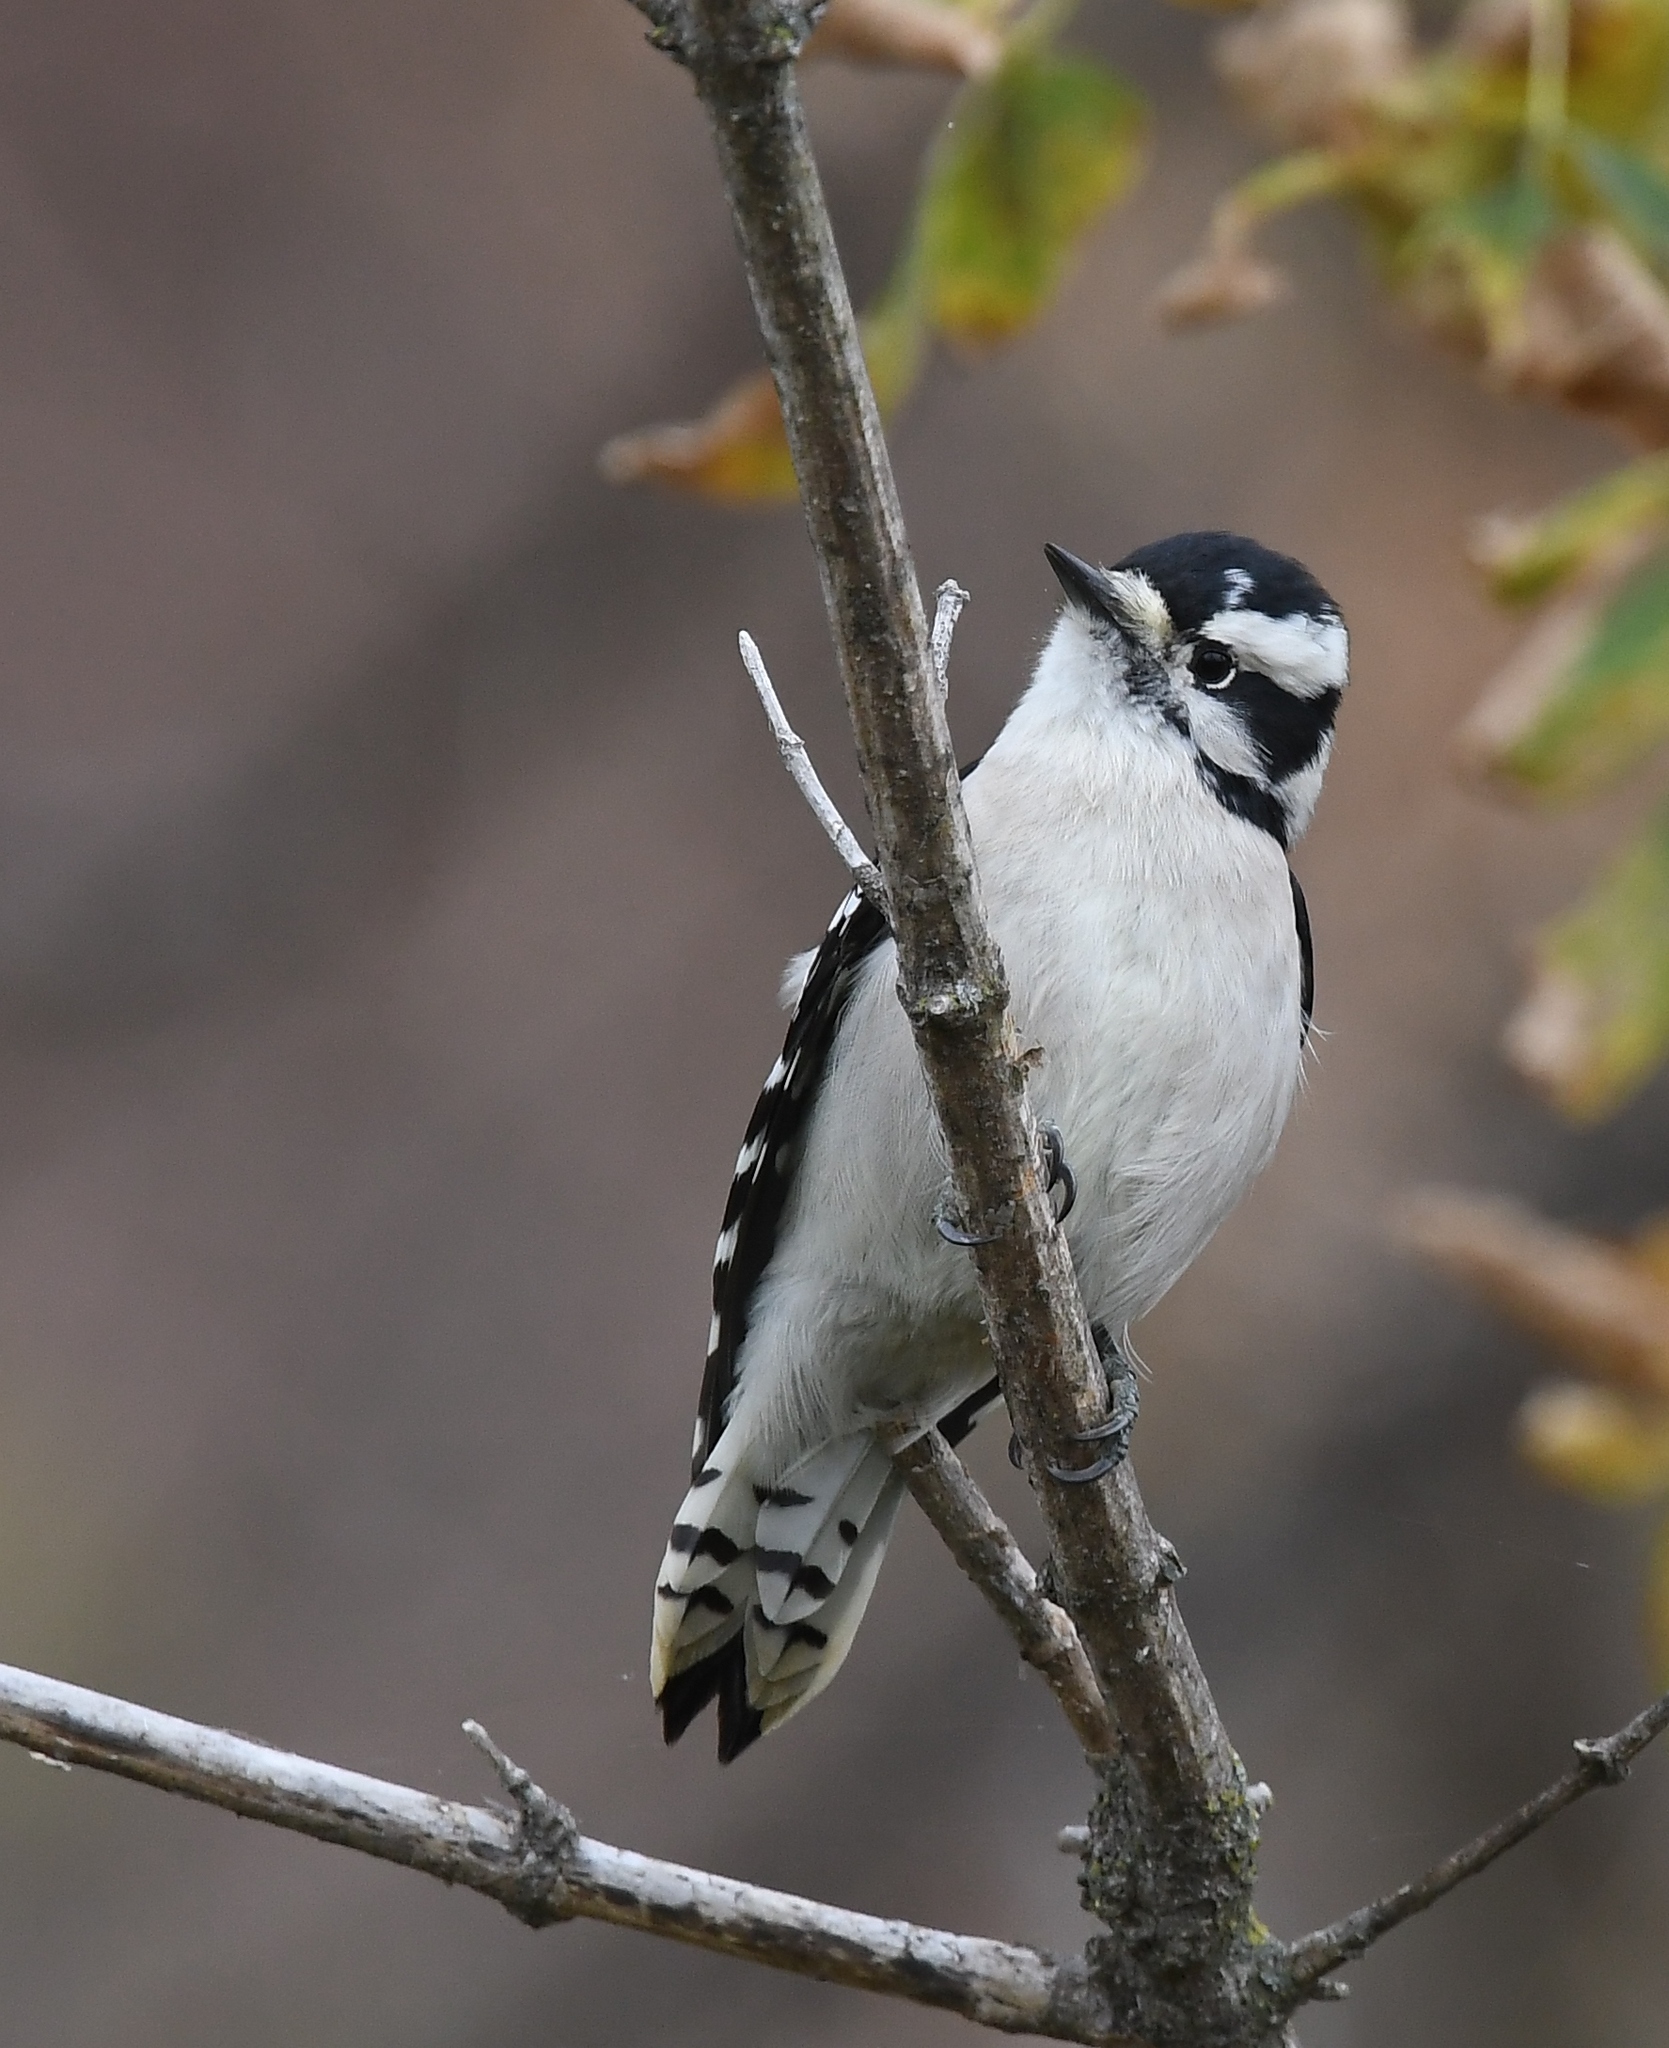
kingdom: Animalia
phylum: Chordata
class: Aves
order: Piciformes
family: Picidae
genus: Dryobates
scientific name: Dryobates pubescens
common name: Downy woodpecker
